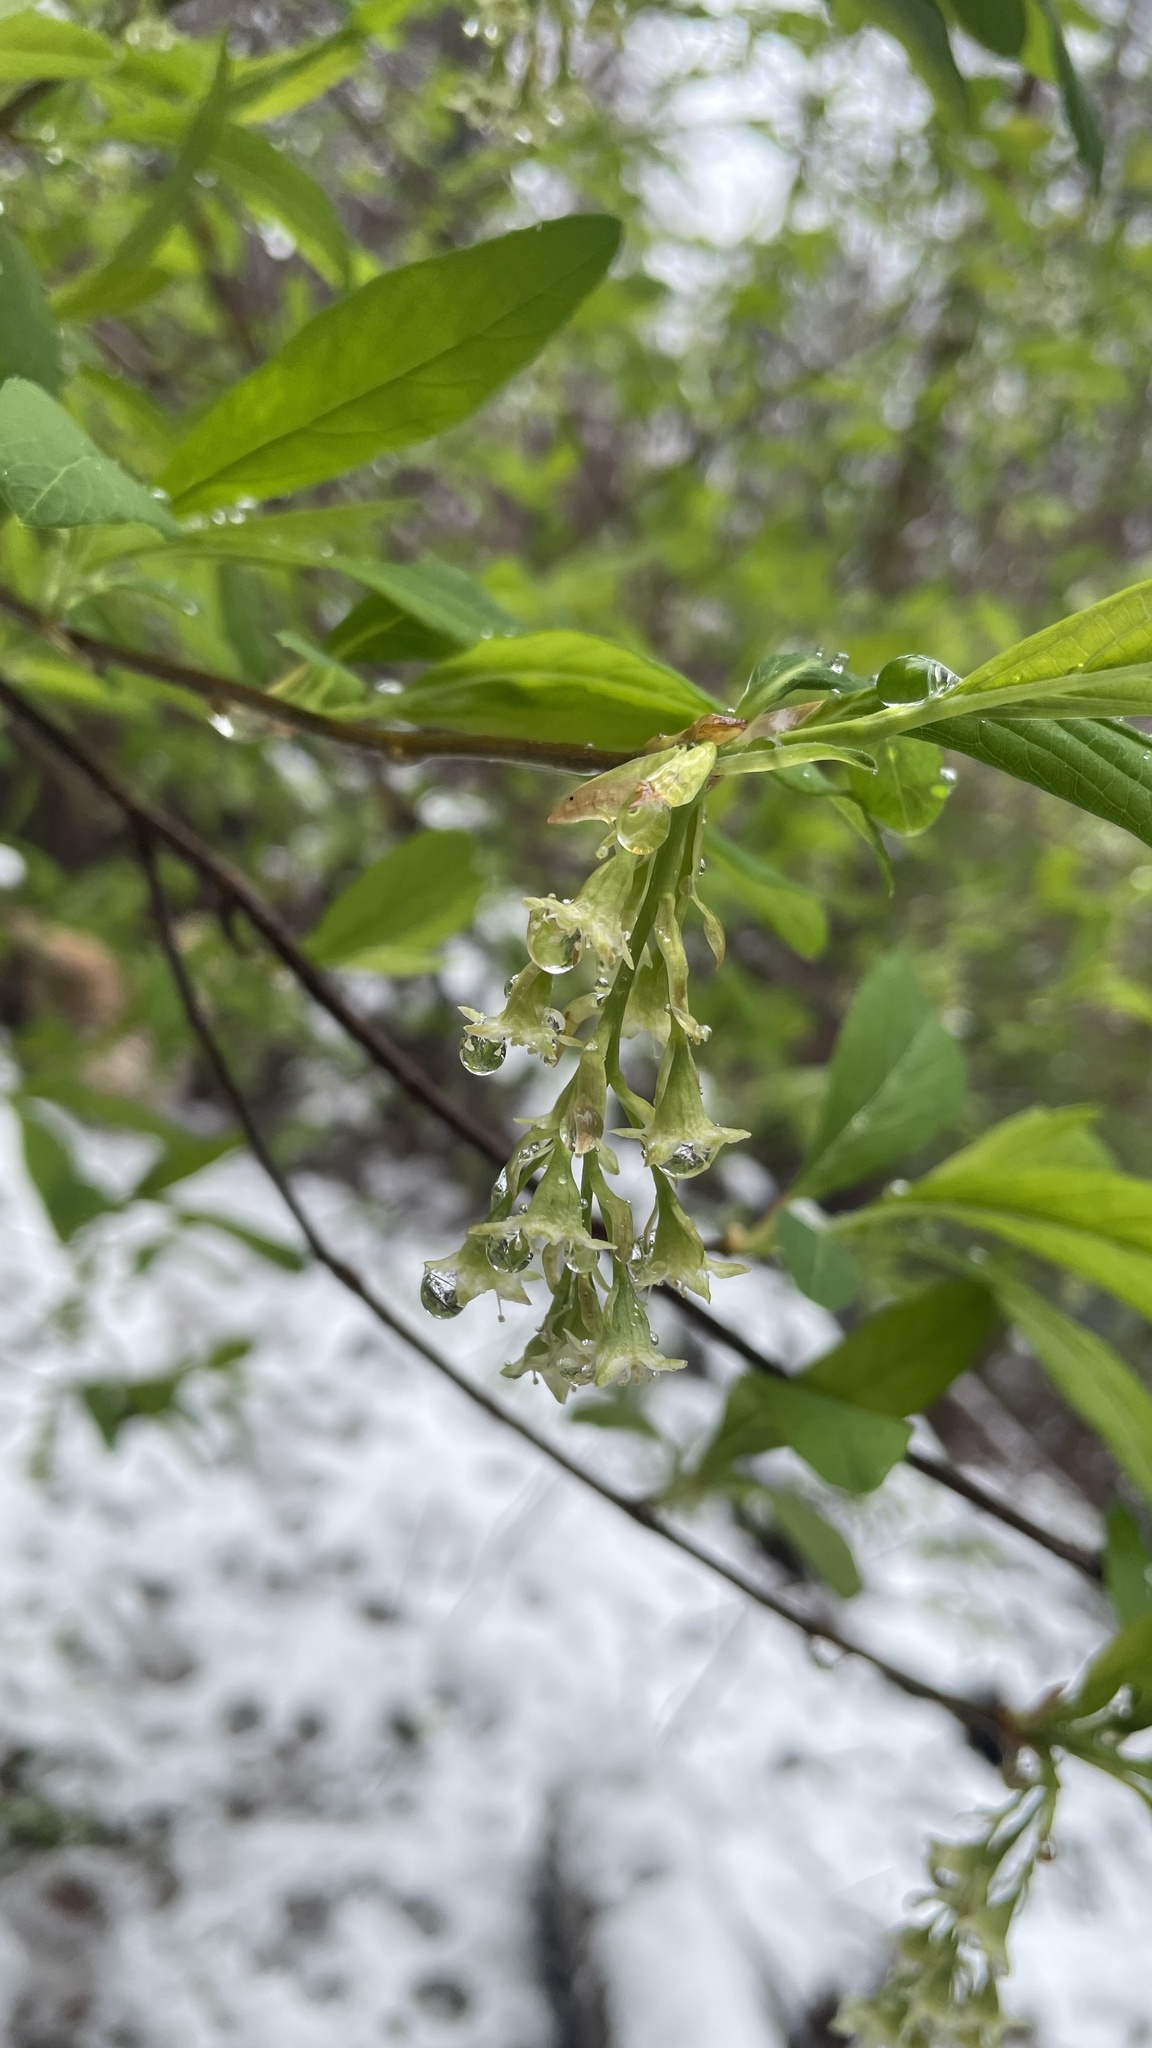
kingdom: Plantae
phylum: Tracheophyta
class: Magnoliopsida
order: Rosales
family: Rosaceae
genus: Oemleria
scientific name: Oemleria cerasiformis
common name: Osoberry
